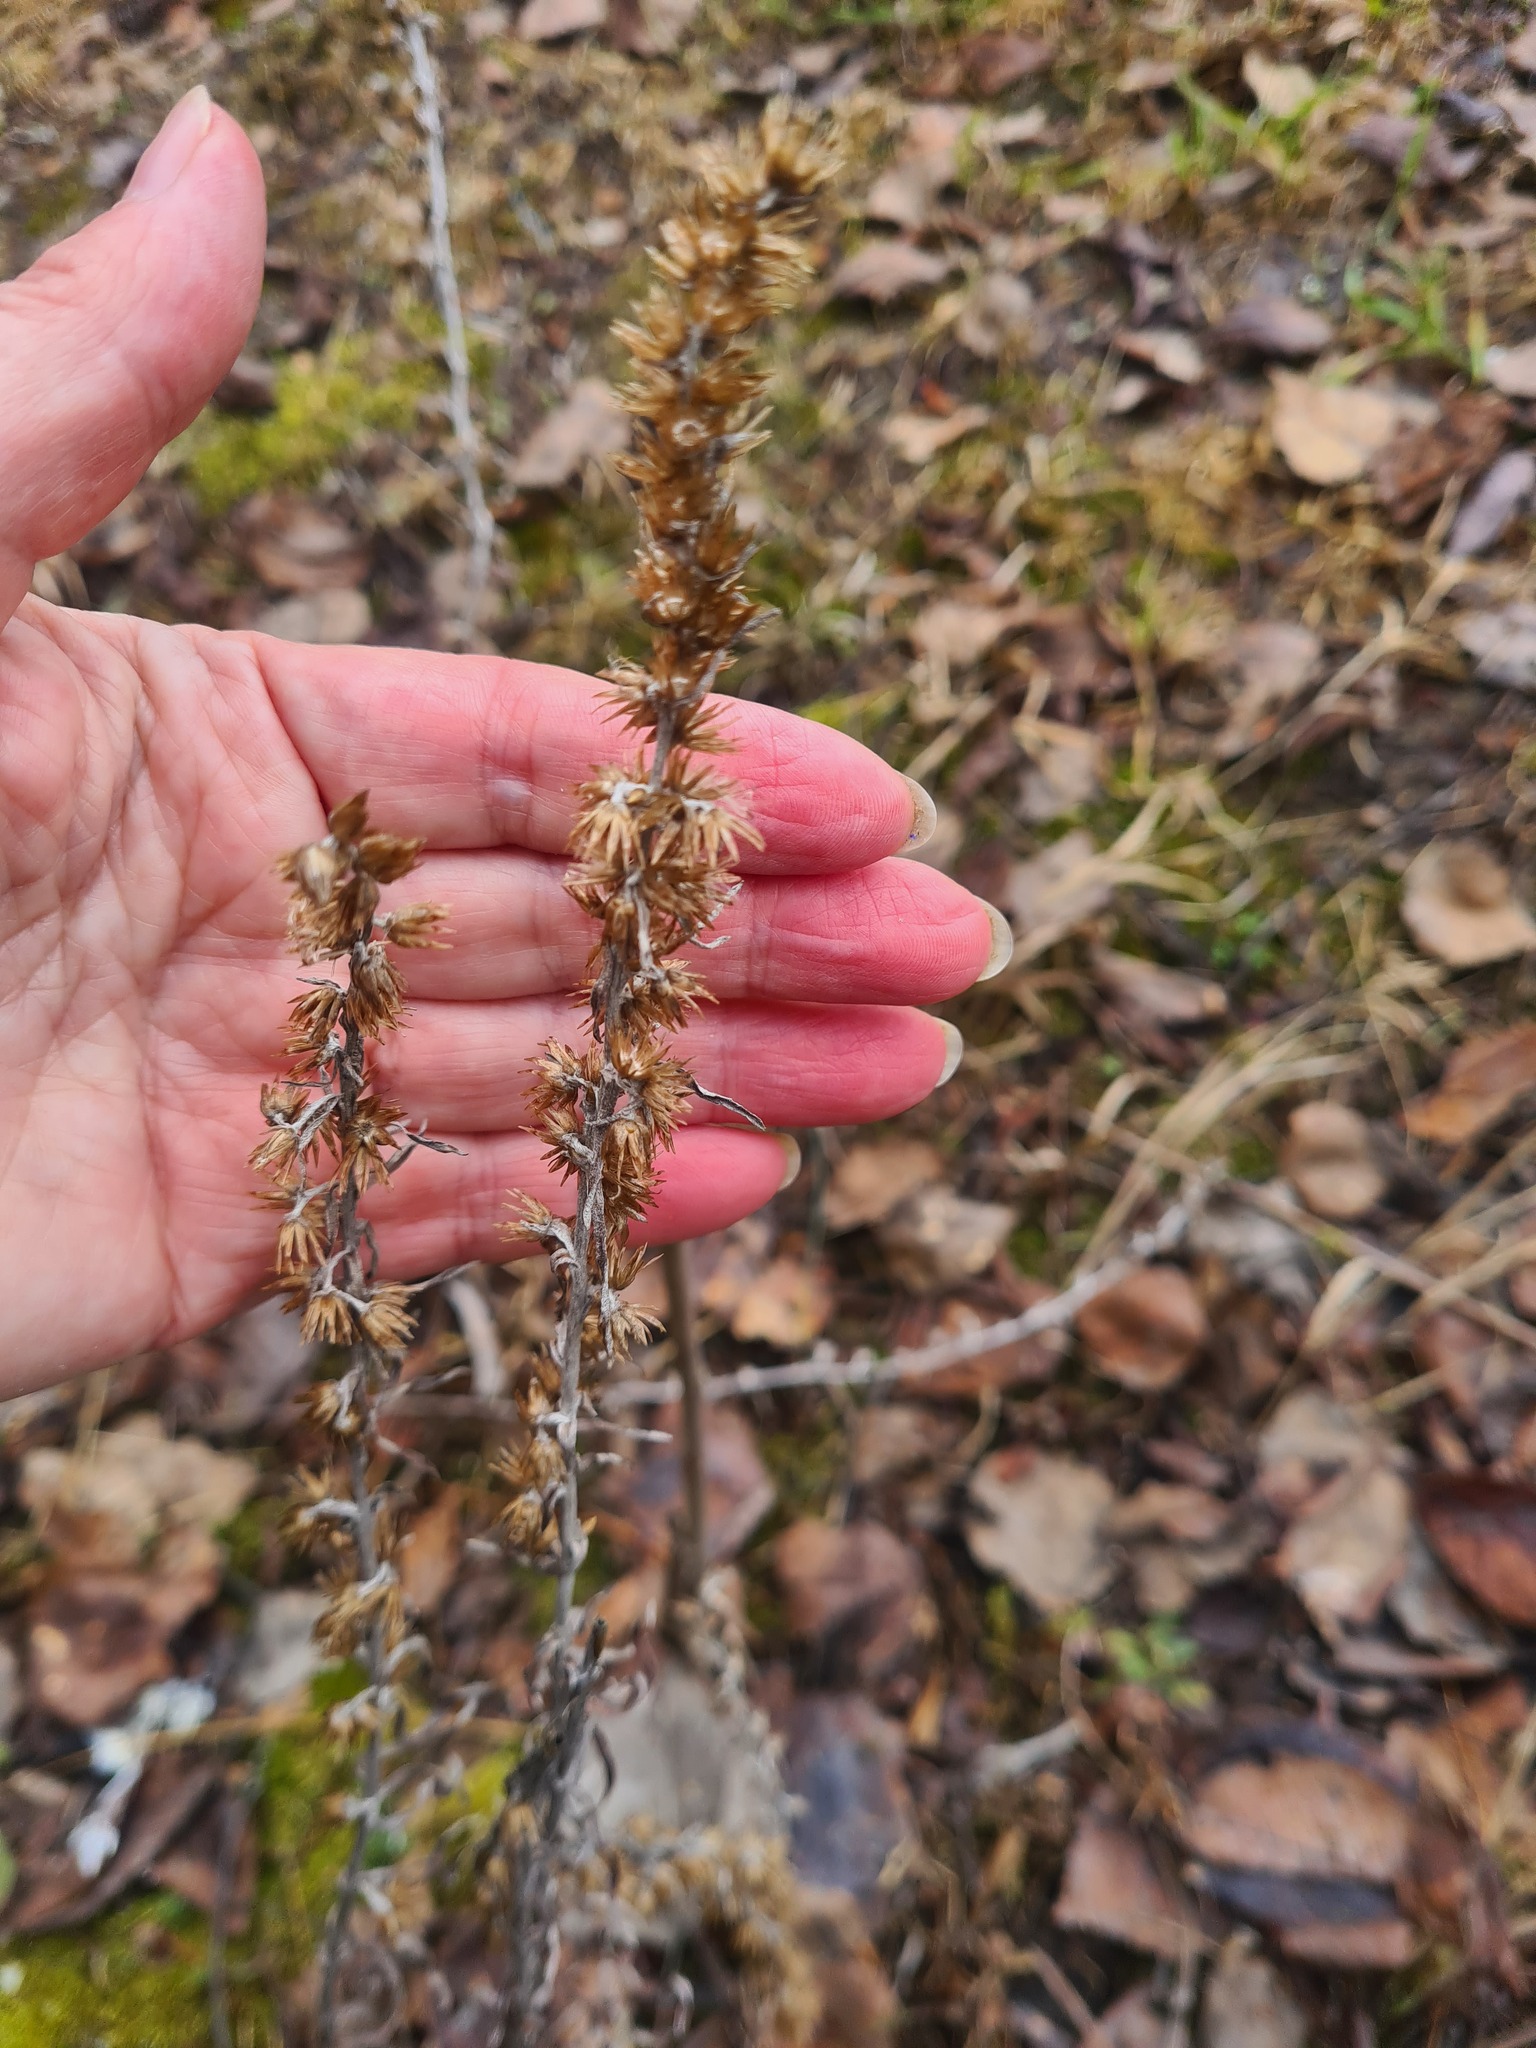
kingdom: Plantae
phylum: Tracheophyta
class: Magnoliopsida
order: Asterales
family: Asteraceae
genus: Omalotheca
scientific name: Omalotheca sylvatica
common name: Heath cudweed
